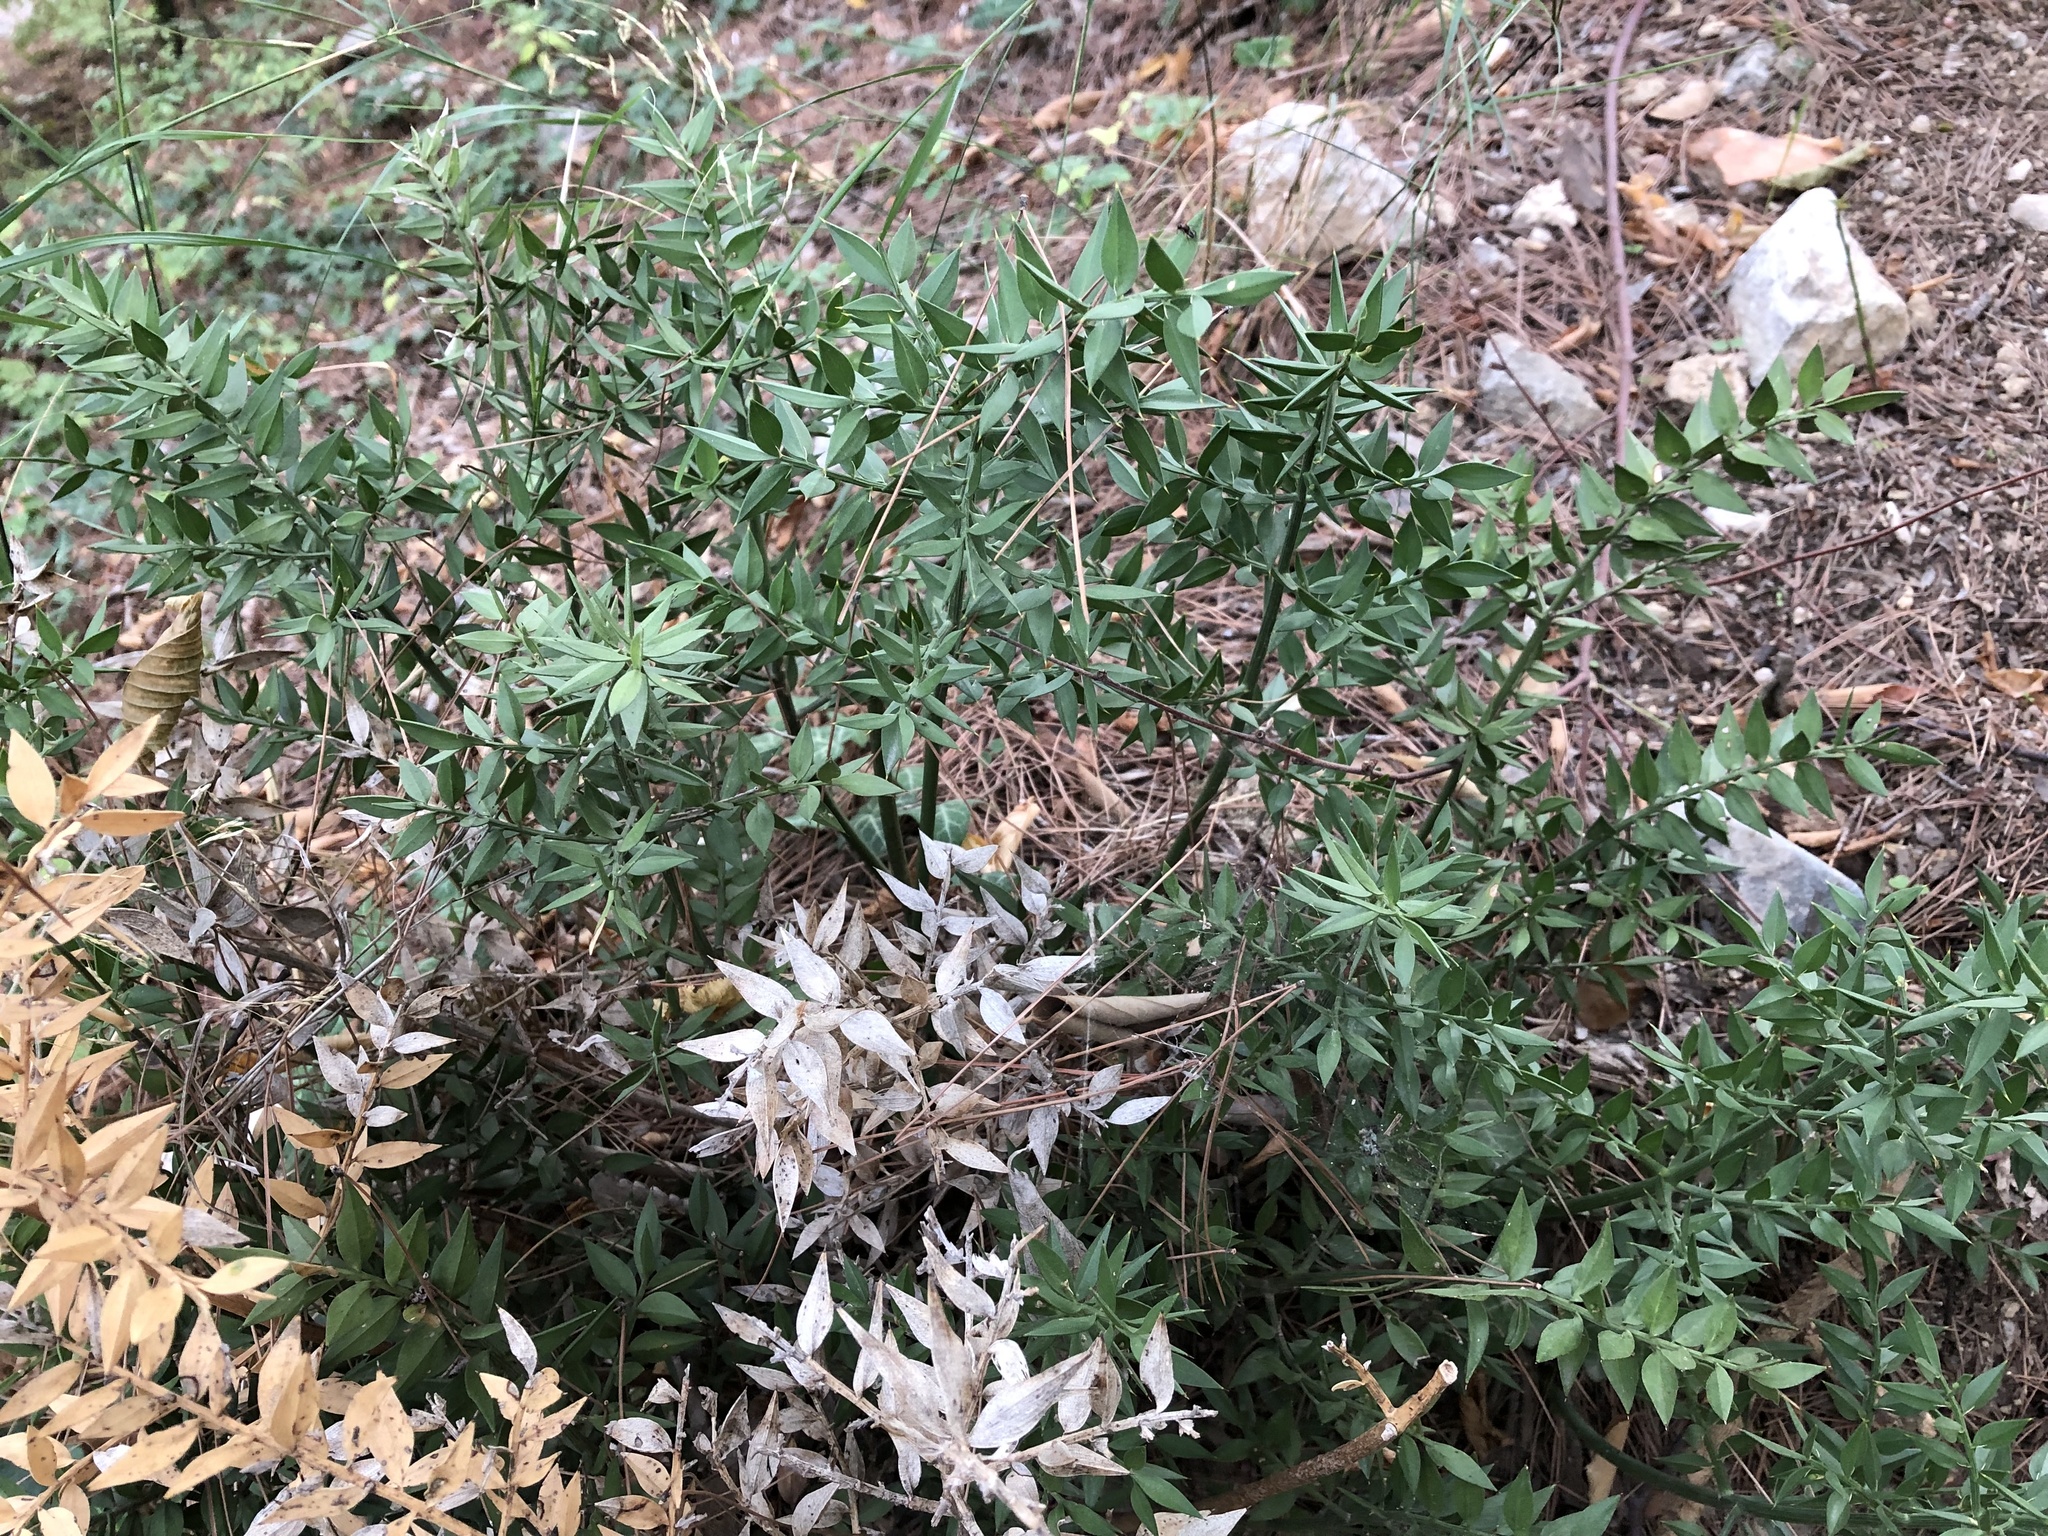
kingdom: Plantae
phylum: Tracheophyta
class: Liliopsida
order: Asparagales
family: Asparagaceae
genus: Ruscus
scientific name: Ruscus aculeatus
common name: Butcher's-broom
